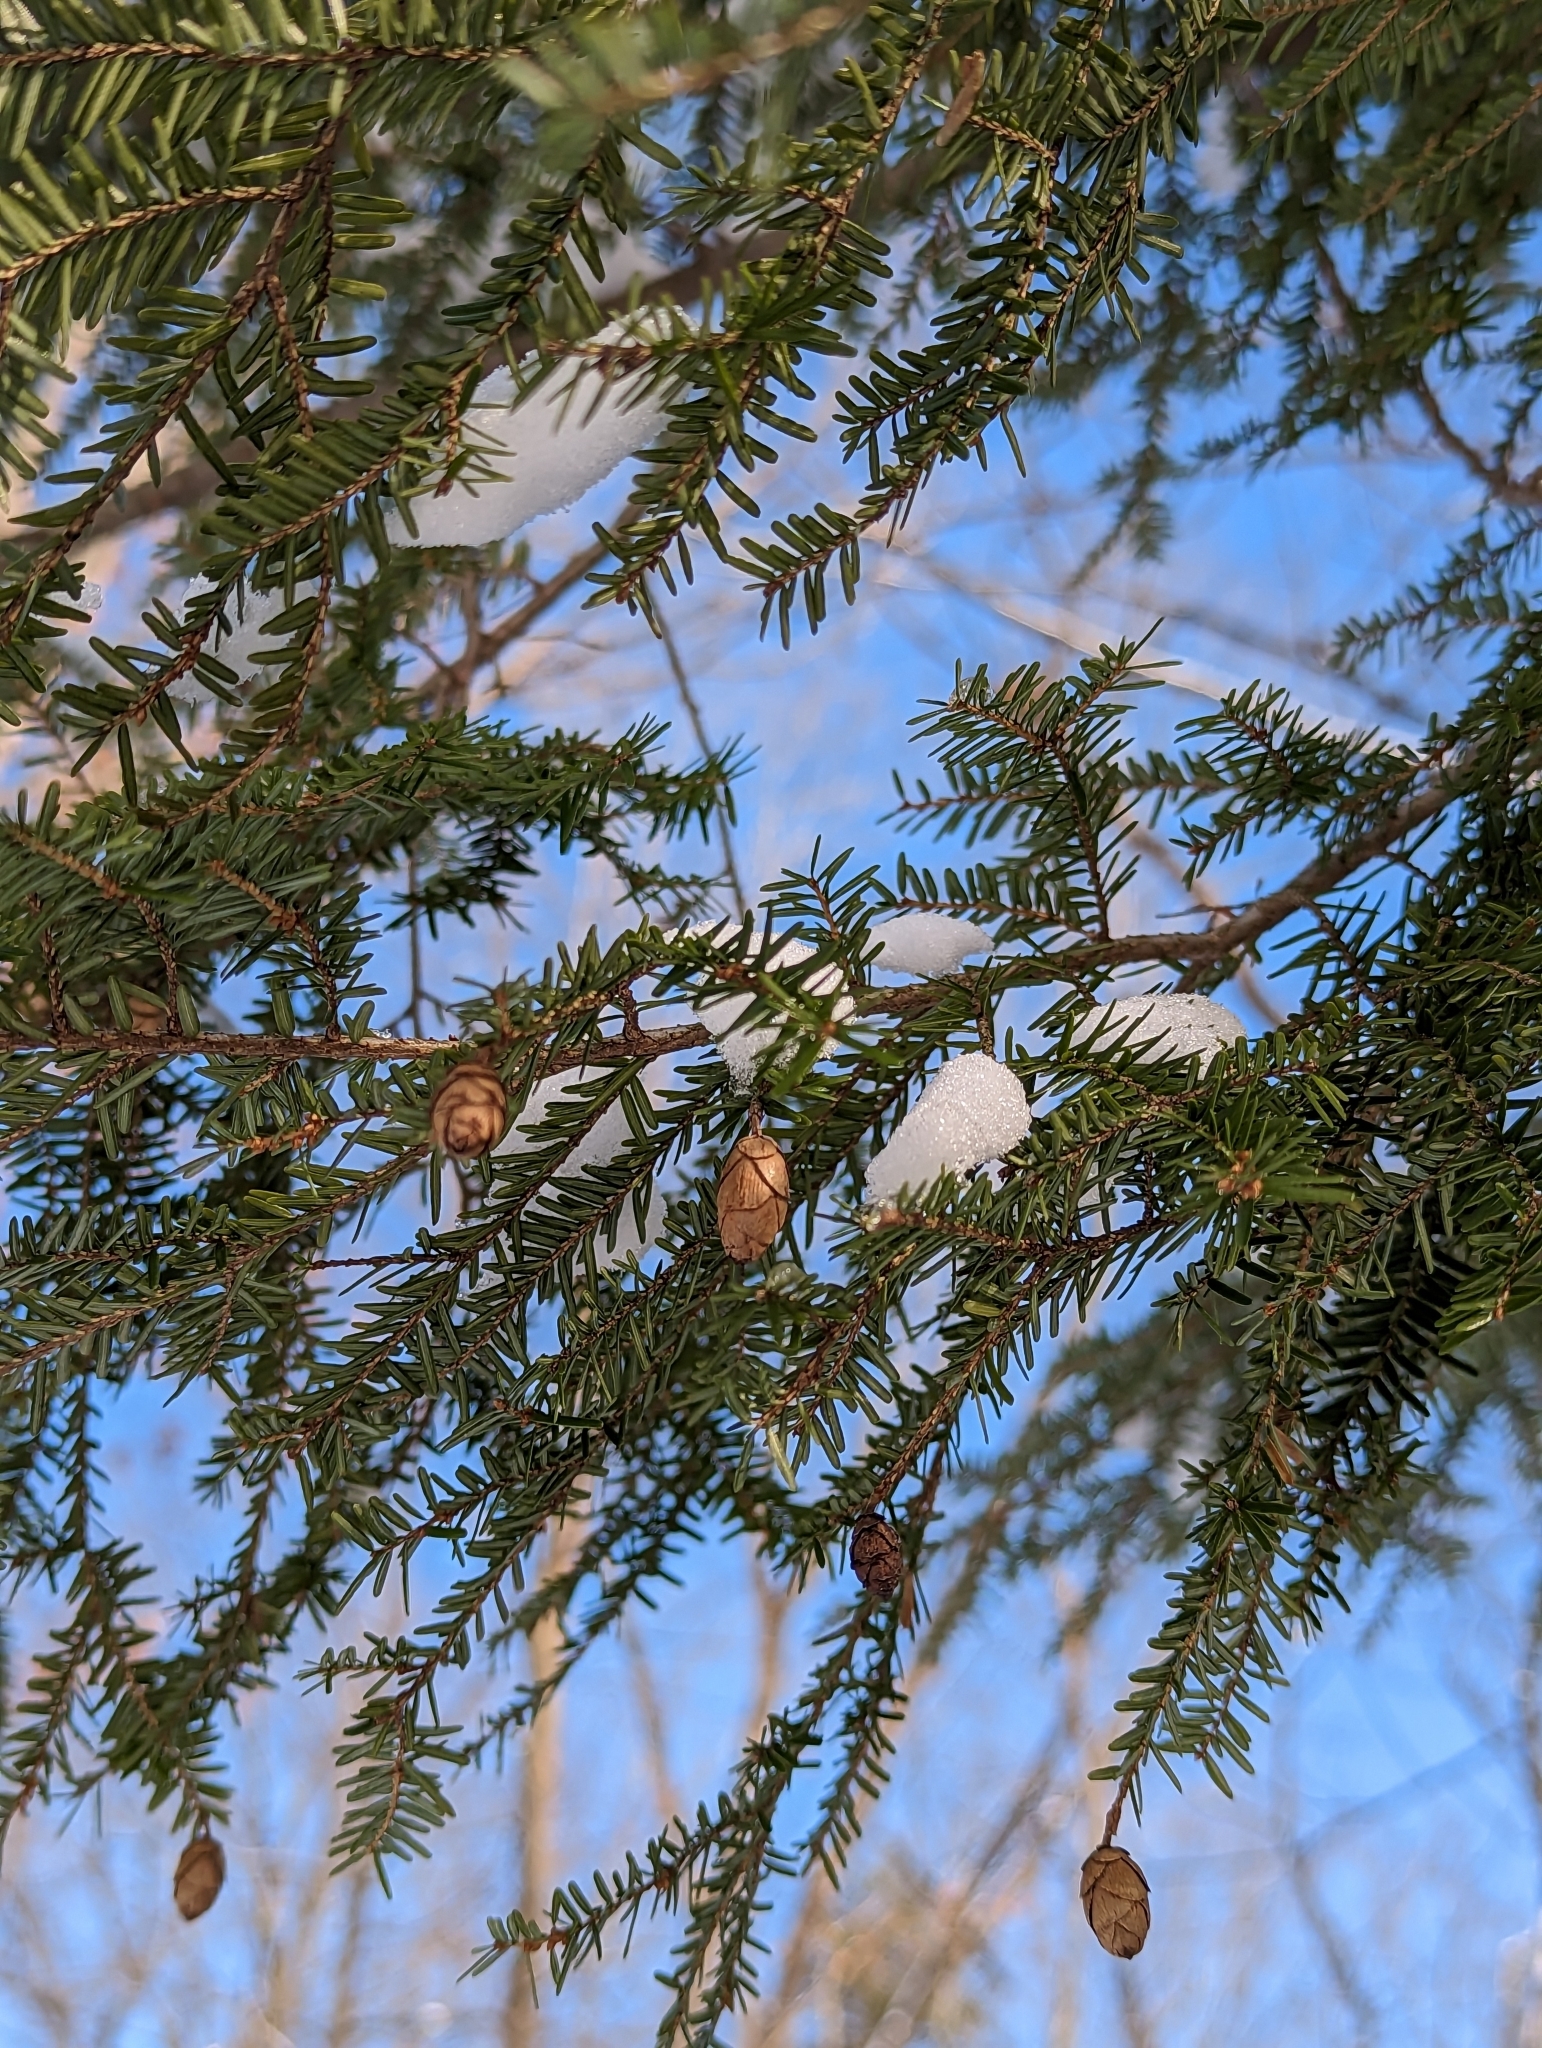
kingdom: Plantae
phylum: Tracheophyta
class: Pinopsida
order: Pinales
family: Pinaceae
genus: Tsuga
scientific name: Tsuga canadensis
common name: Eastern hemlock
